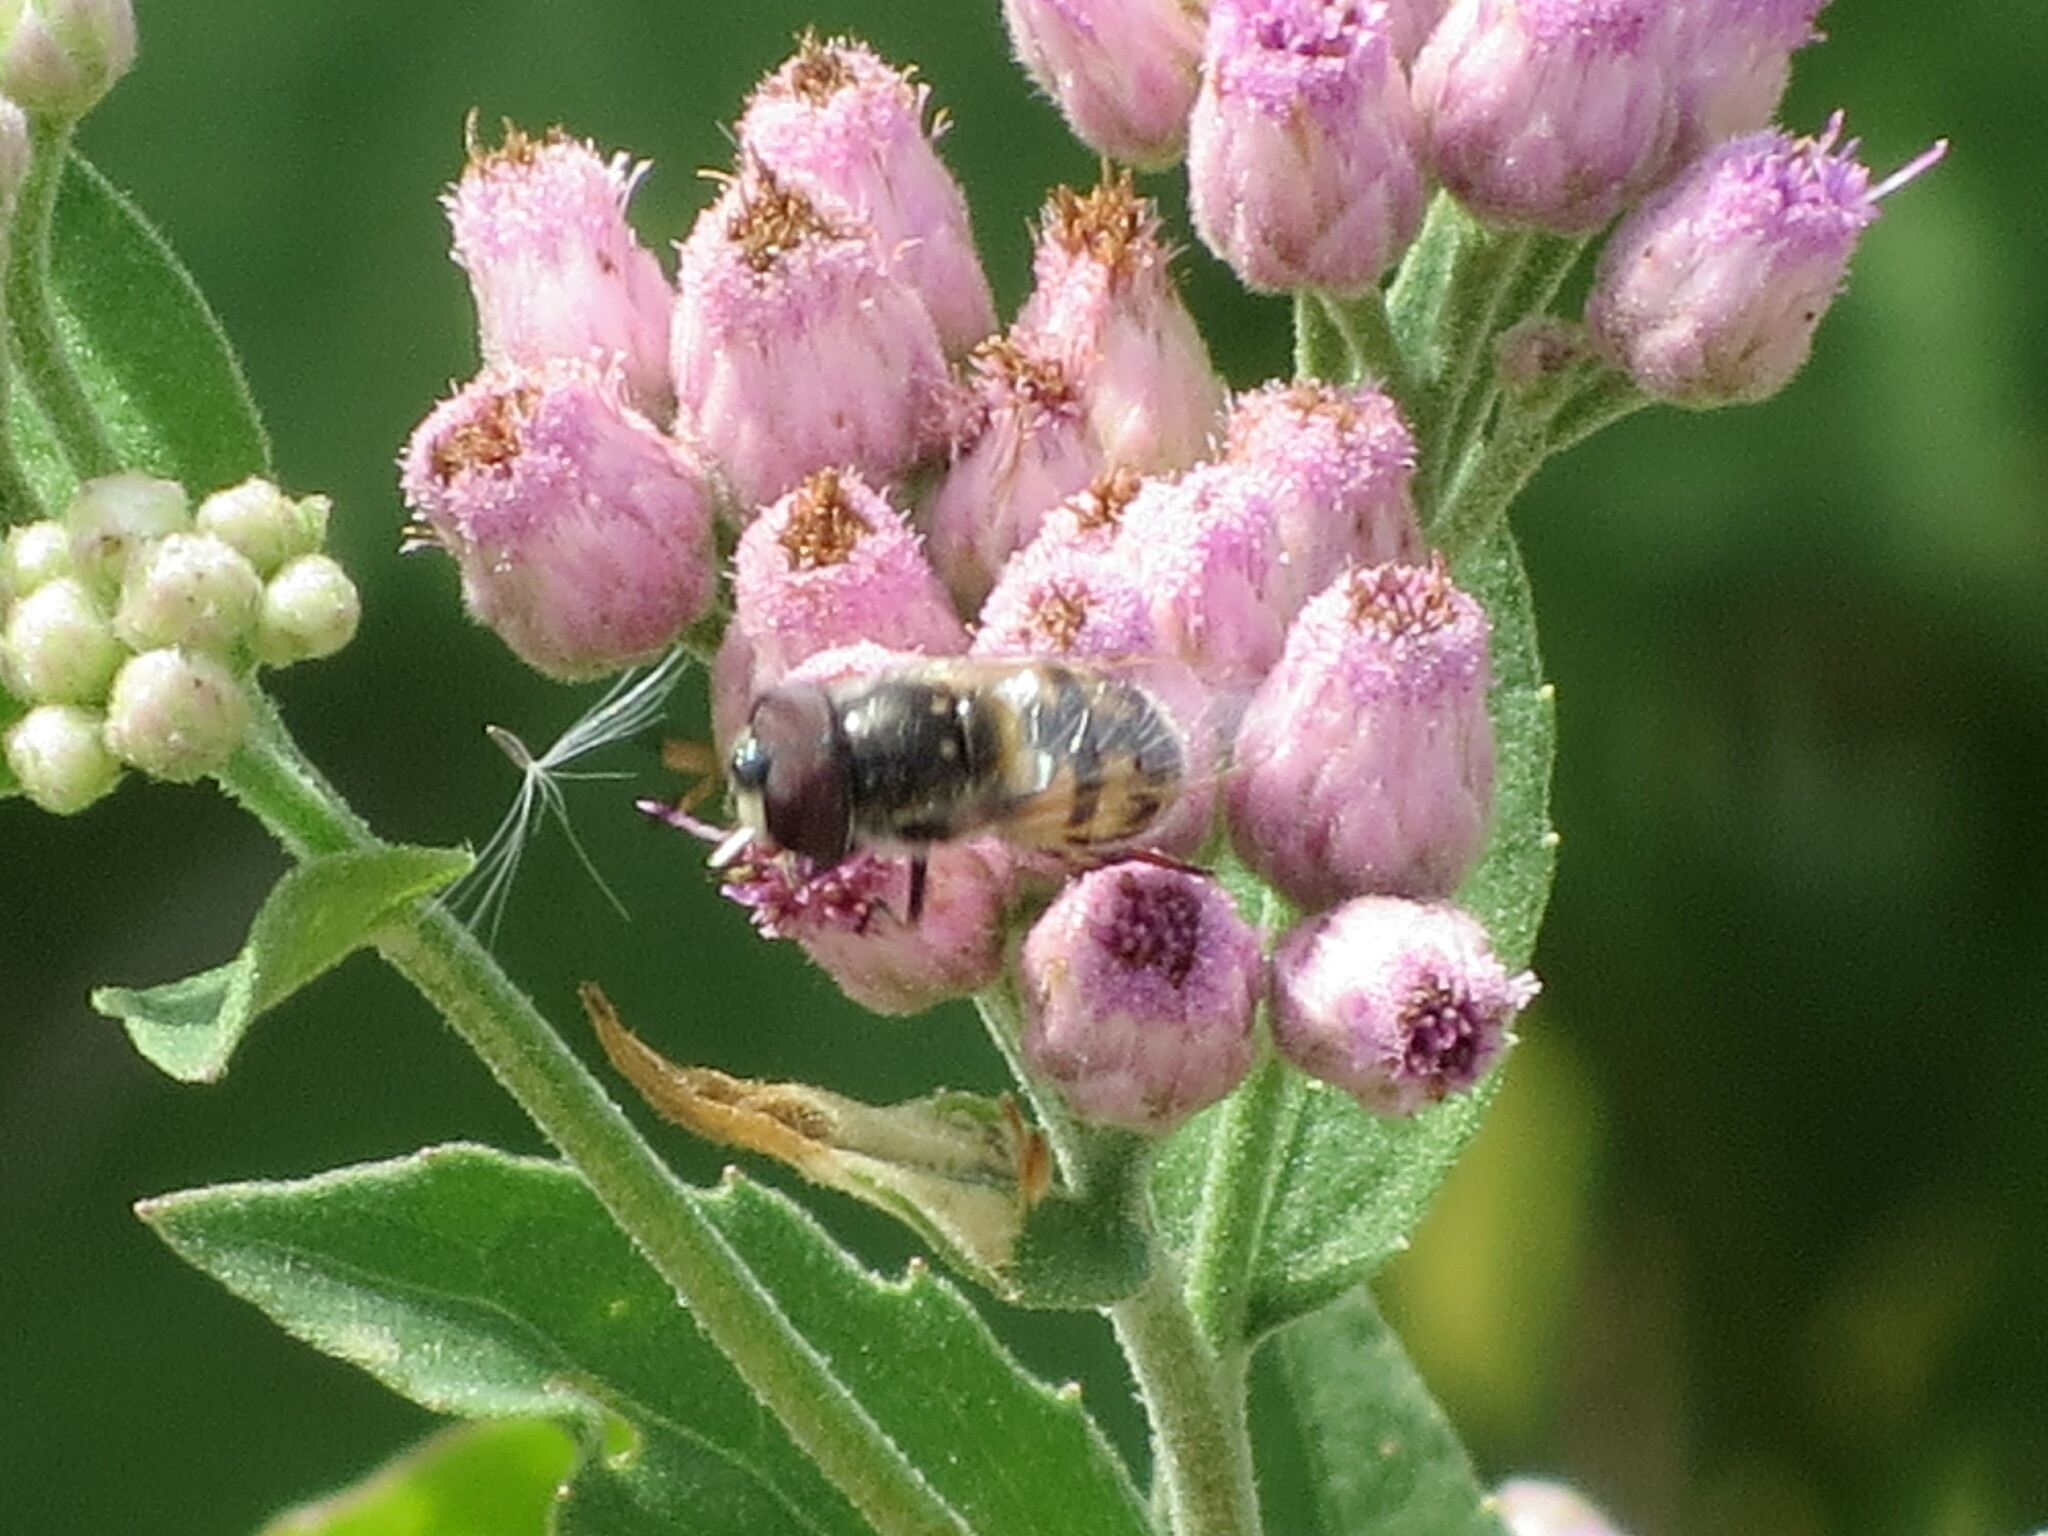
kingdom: Animalia
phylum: Arthropoda
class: Insecta
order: Diptera
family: Syrphidae
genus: Copestylum
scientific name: Copestylum marginatum
